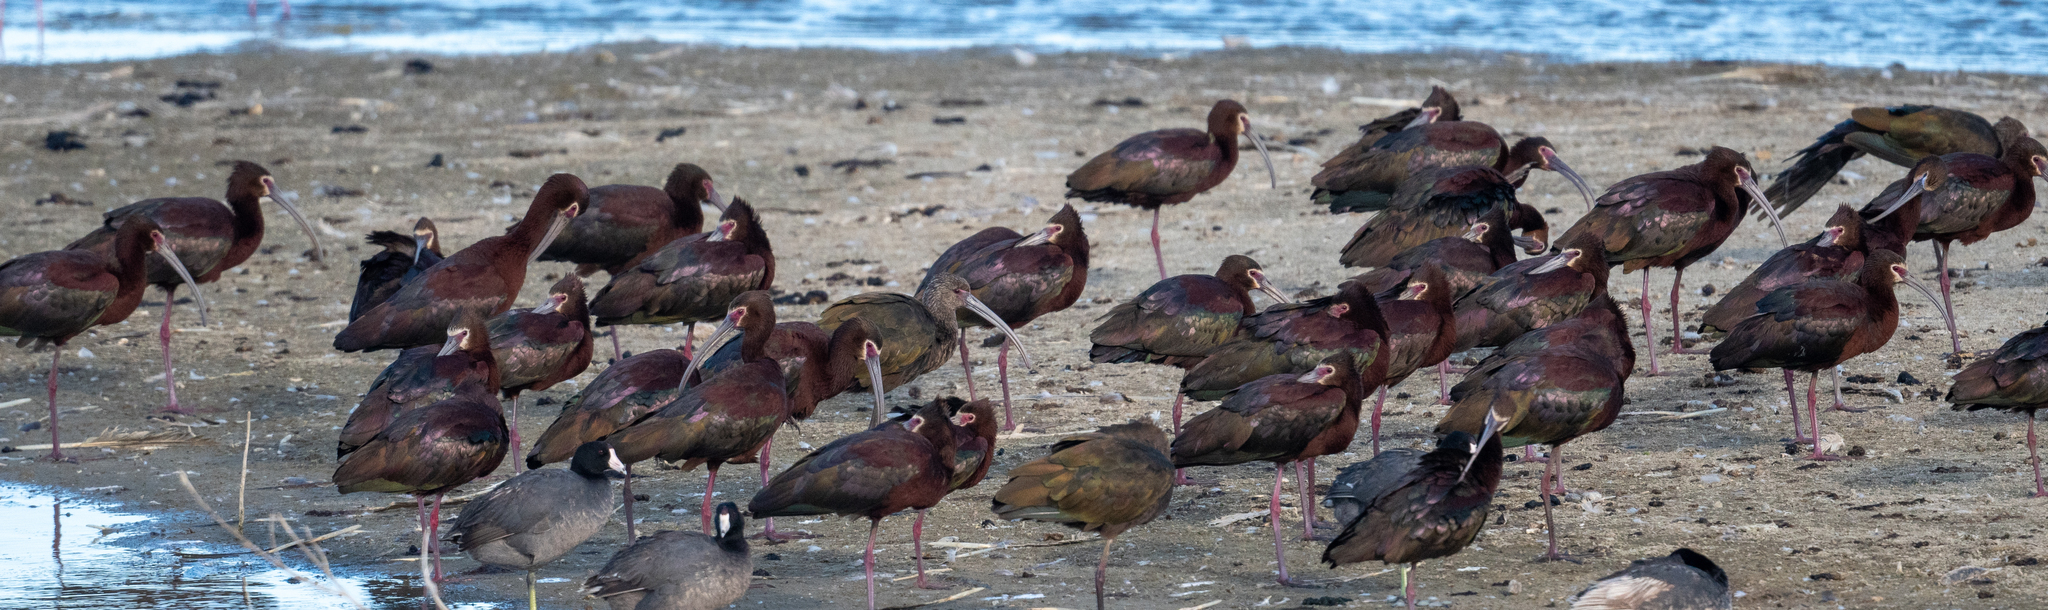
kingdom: Animalia
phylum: Chordata
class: Aves
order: Pelecaniformes
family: Threskiornithidae
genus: Plegadis
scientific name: Plegadis chihi
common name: White-faced ibis
